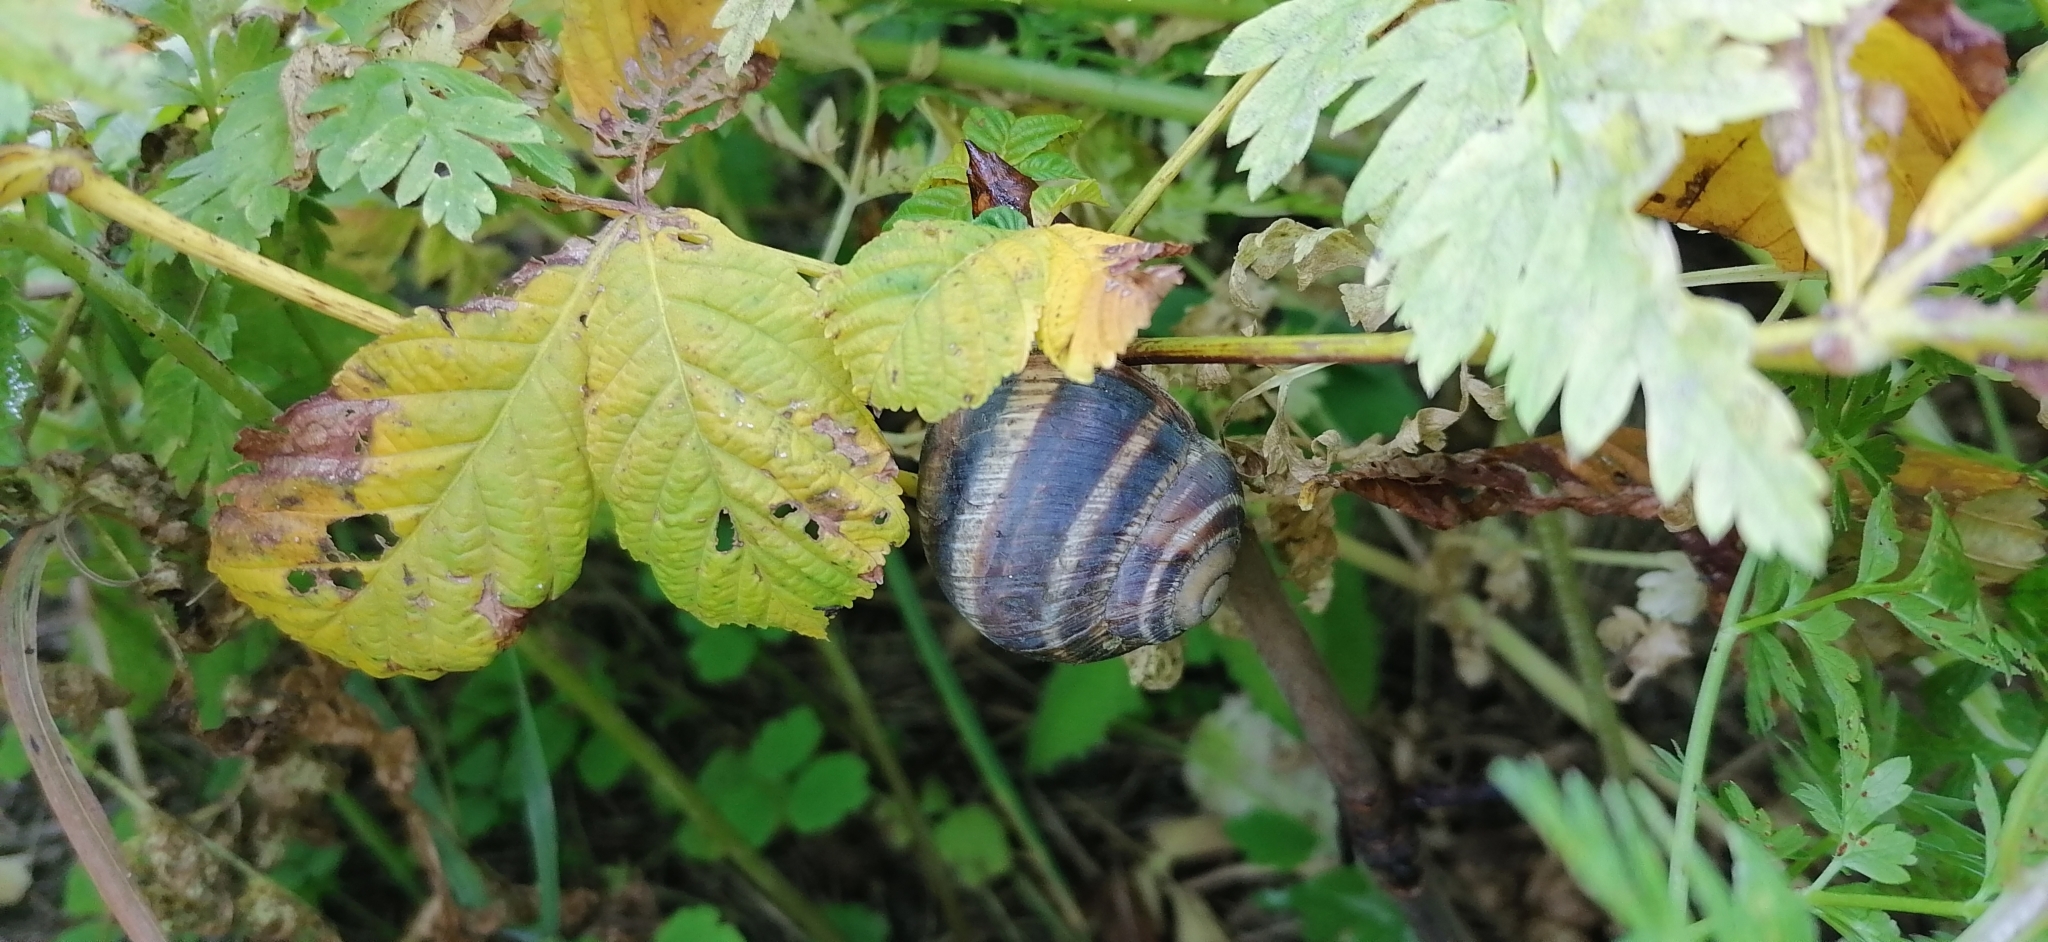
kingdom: Animalia
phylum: Mollusca
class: Gastropoda
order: Stylommatophora
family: Helicidae
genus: Helix
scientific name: Helix albescens
